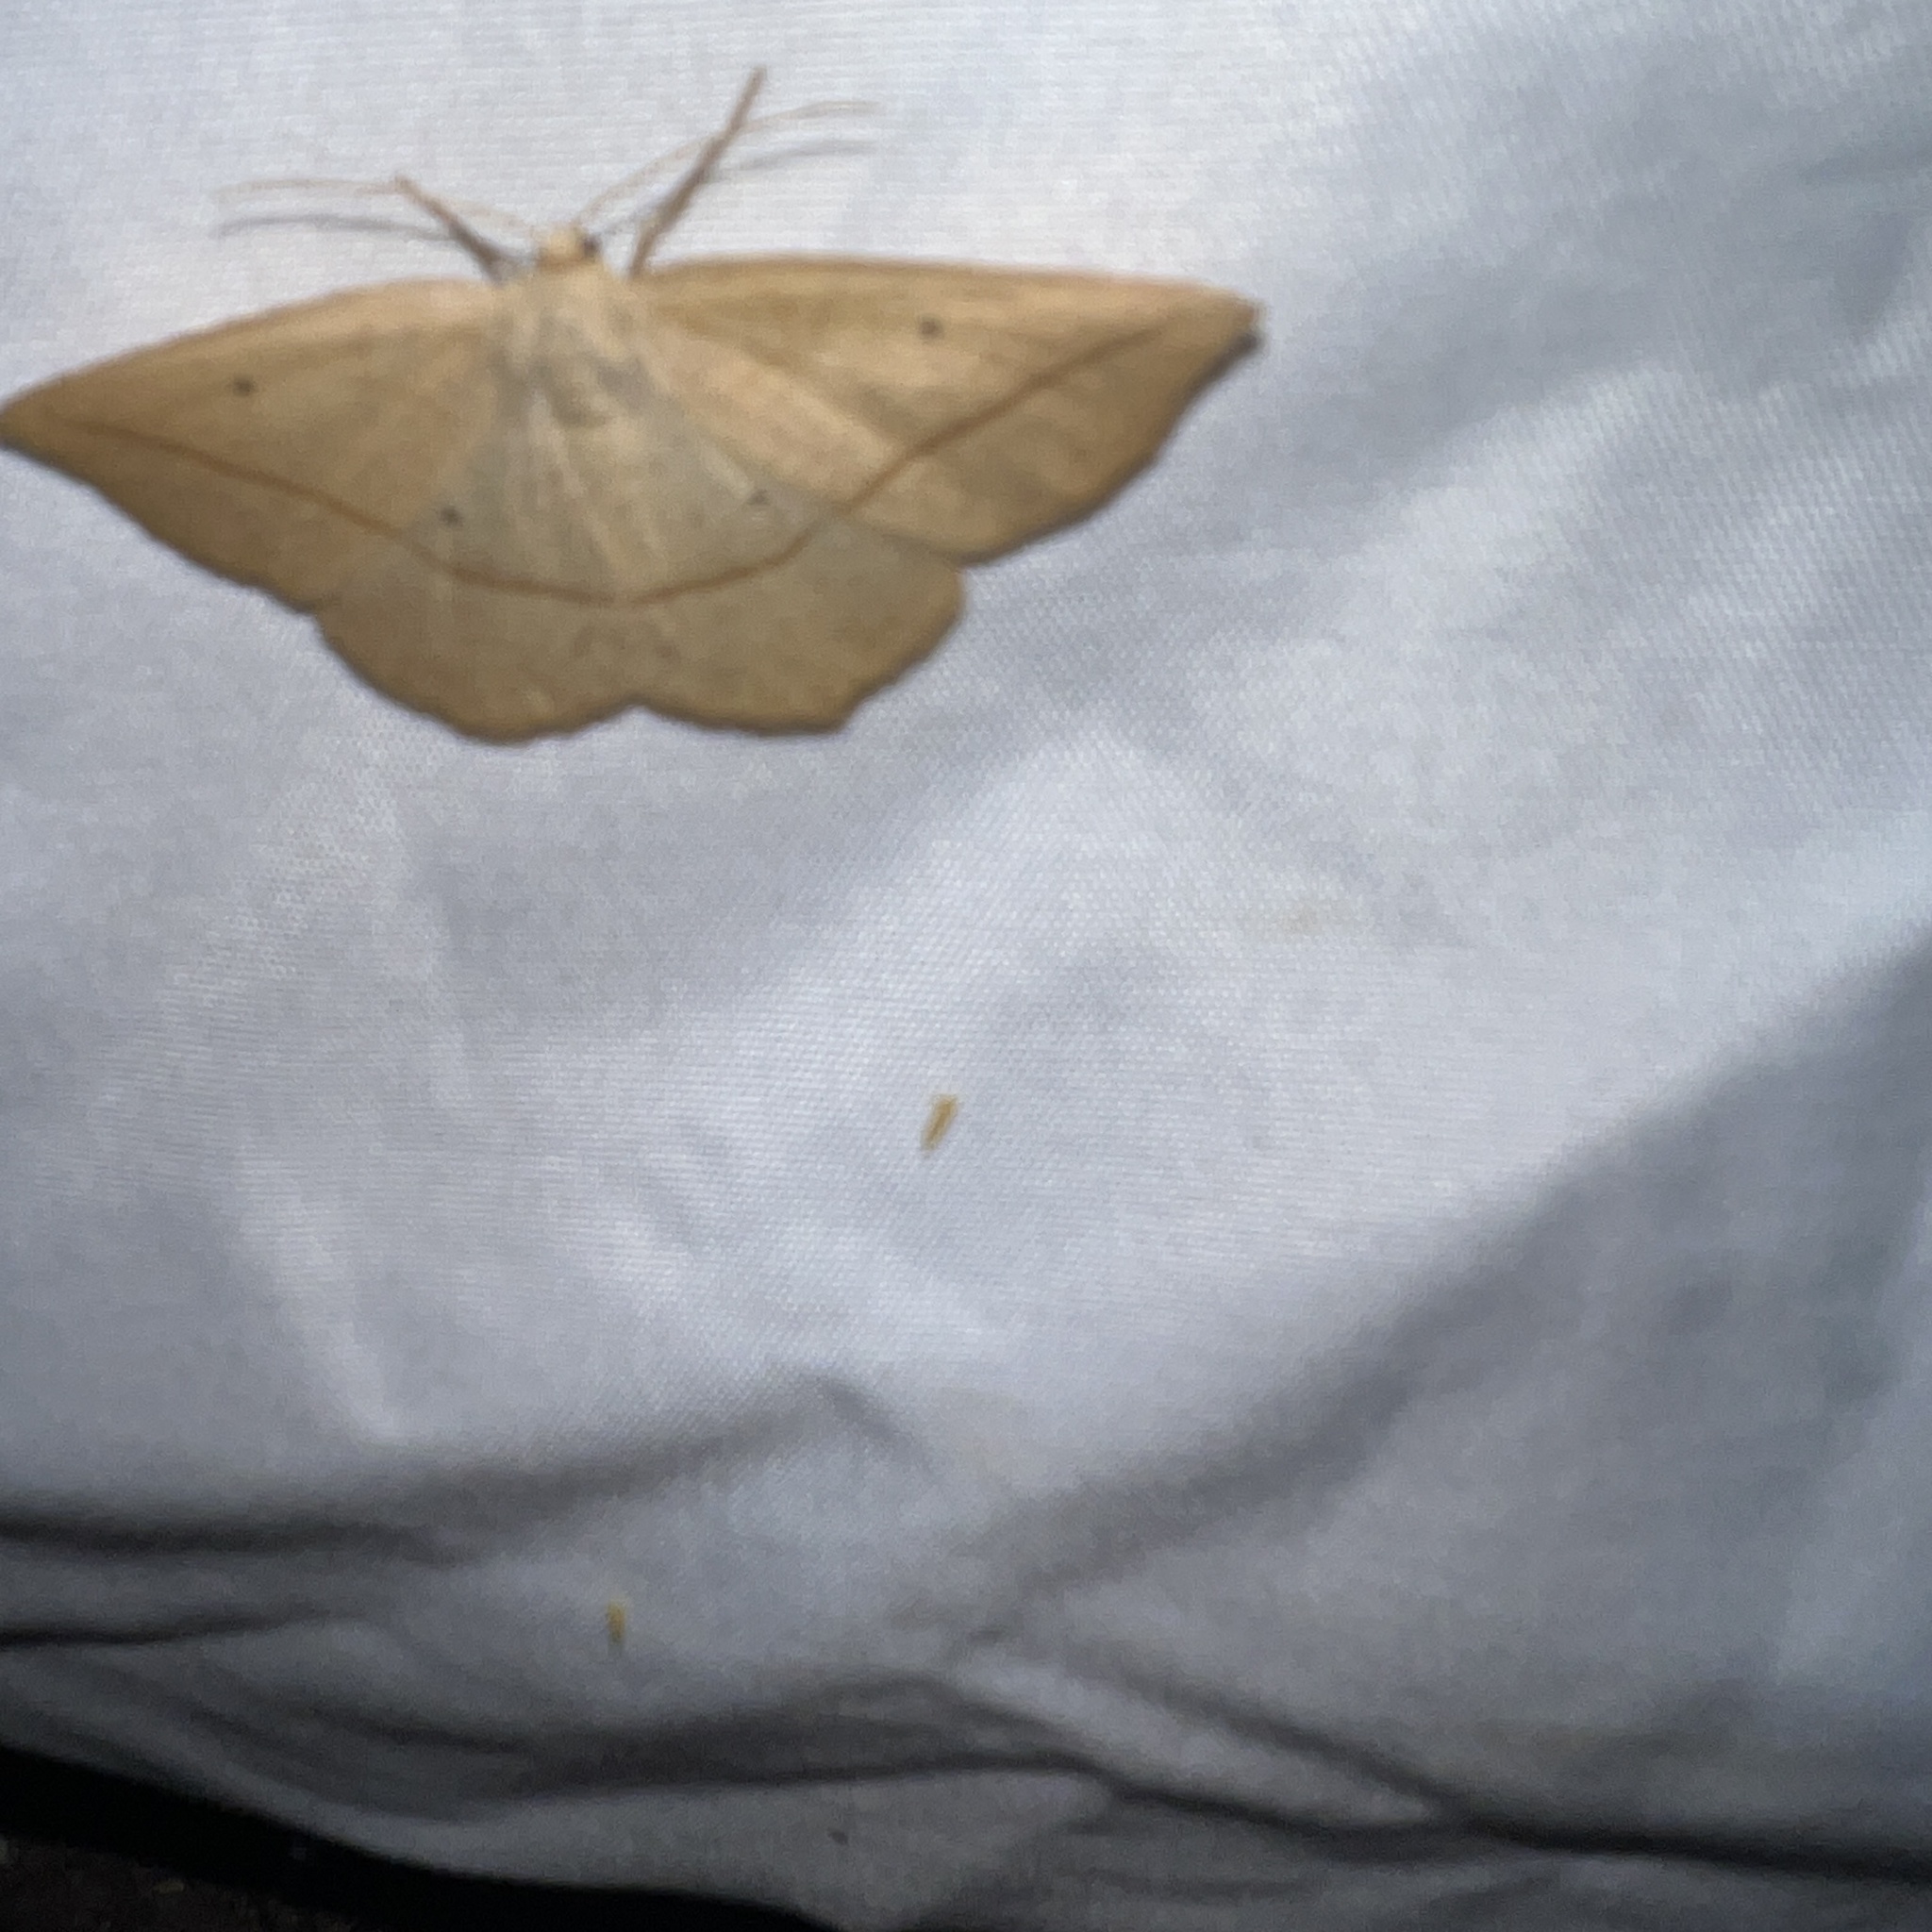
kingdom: Animalia
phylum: Arthropoda
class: Insecta
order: Lepidoptera
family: Geometridae
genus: Eusarca
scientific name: Eusarca confusaria
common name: Confused eusarca
